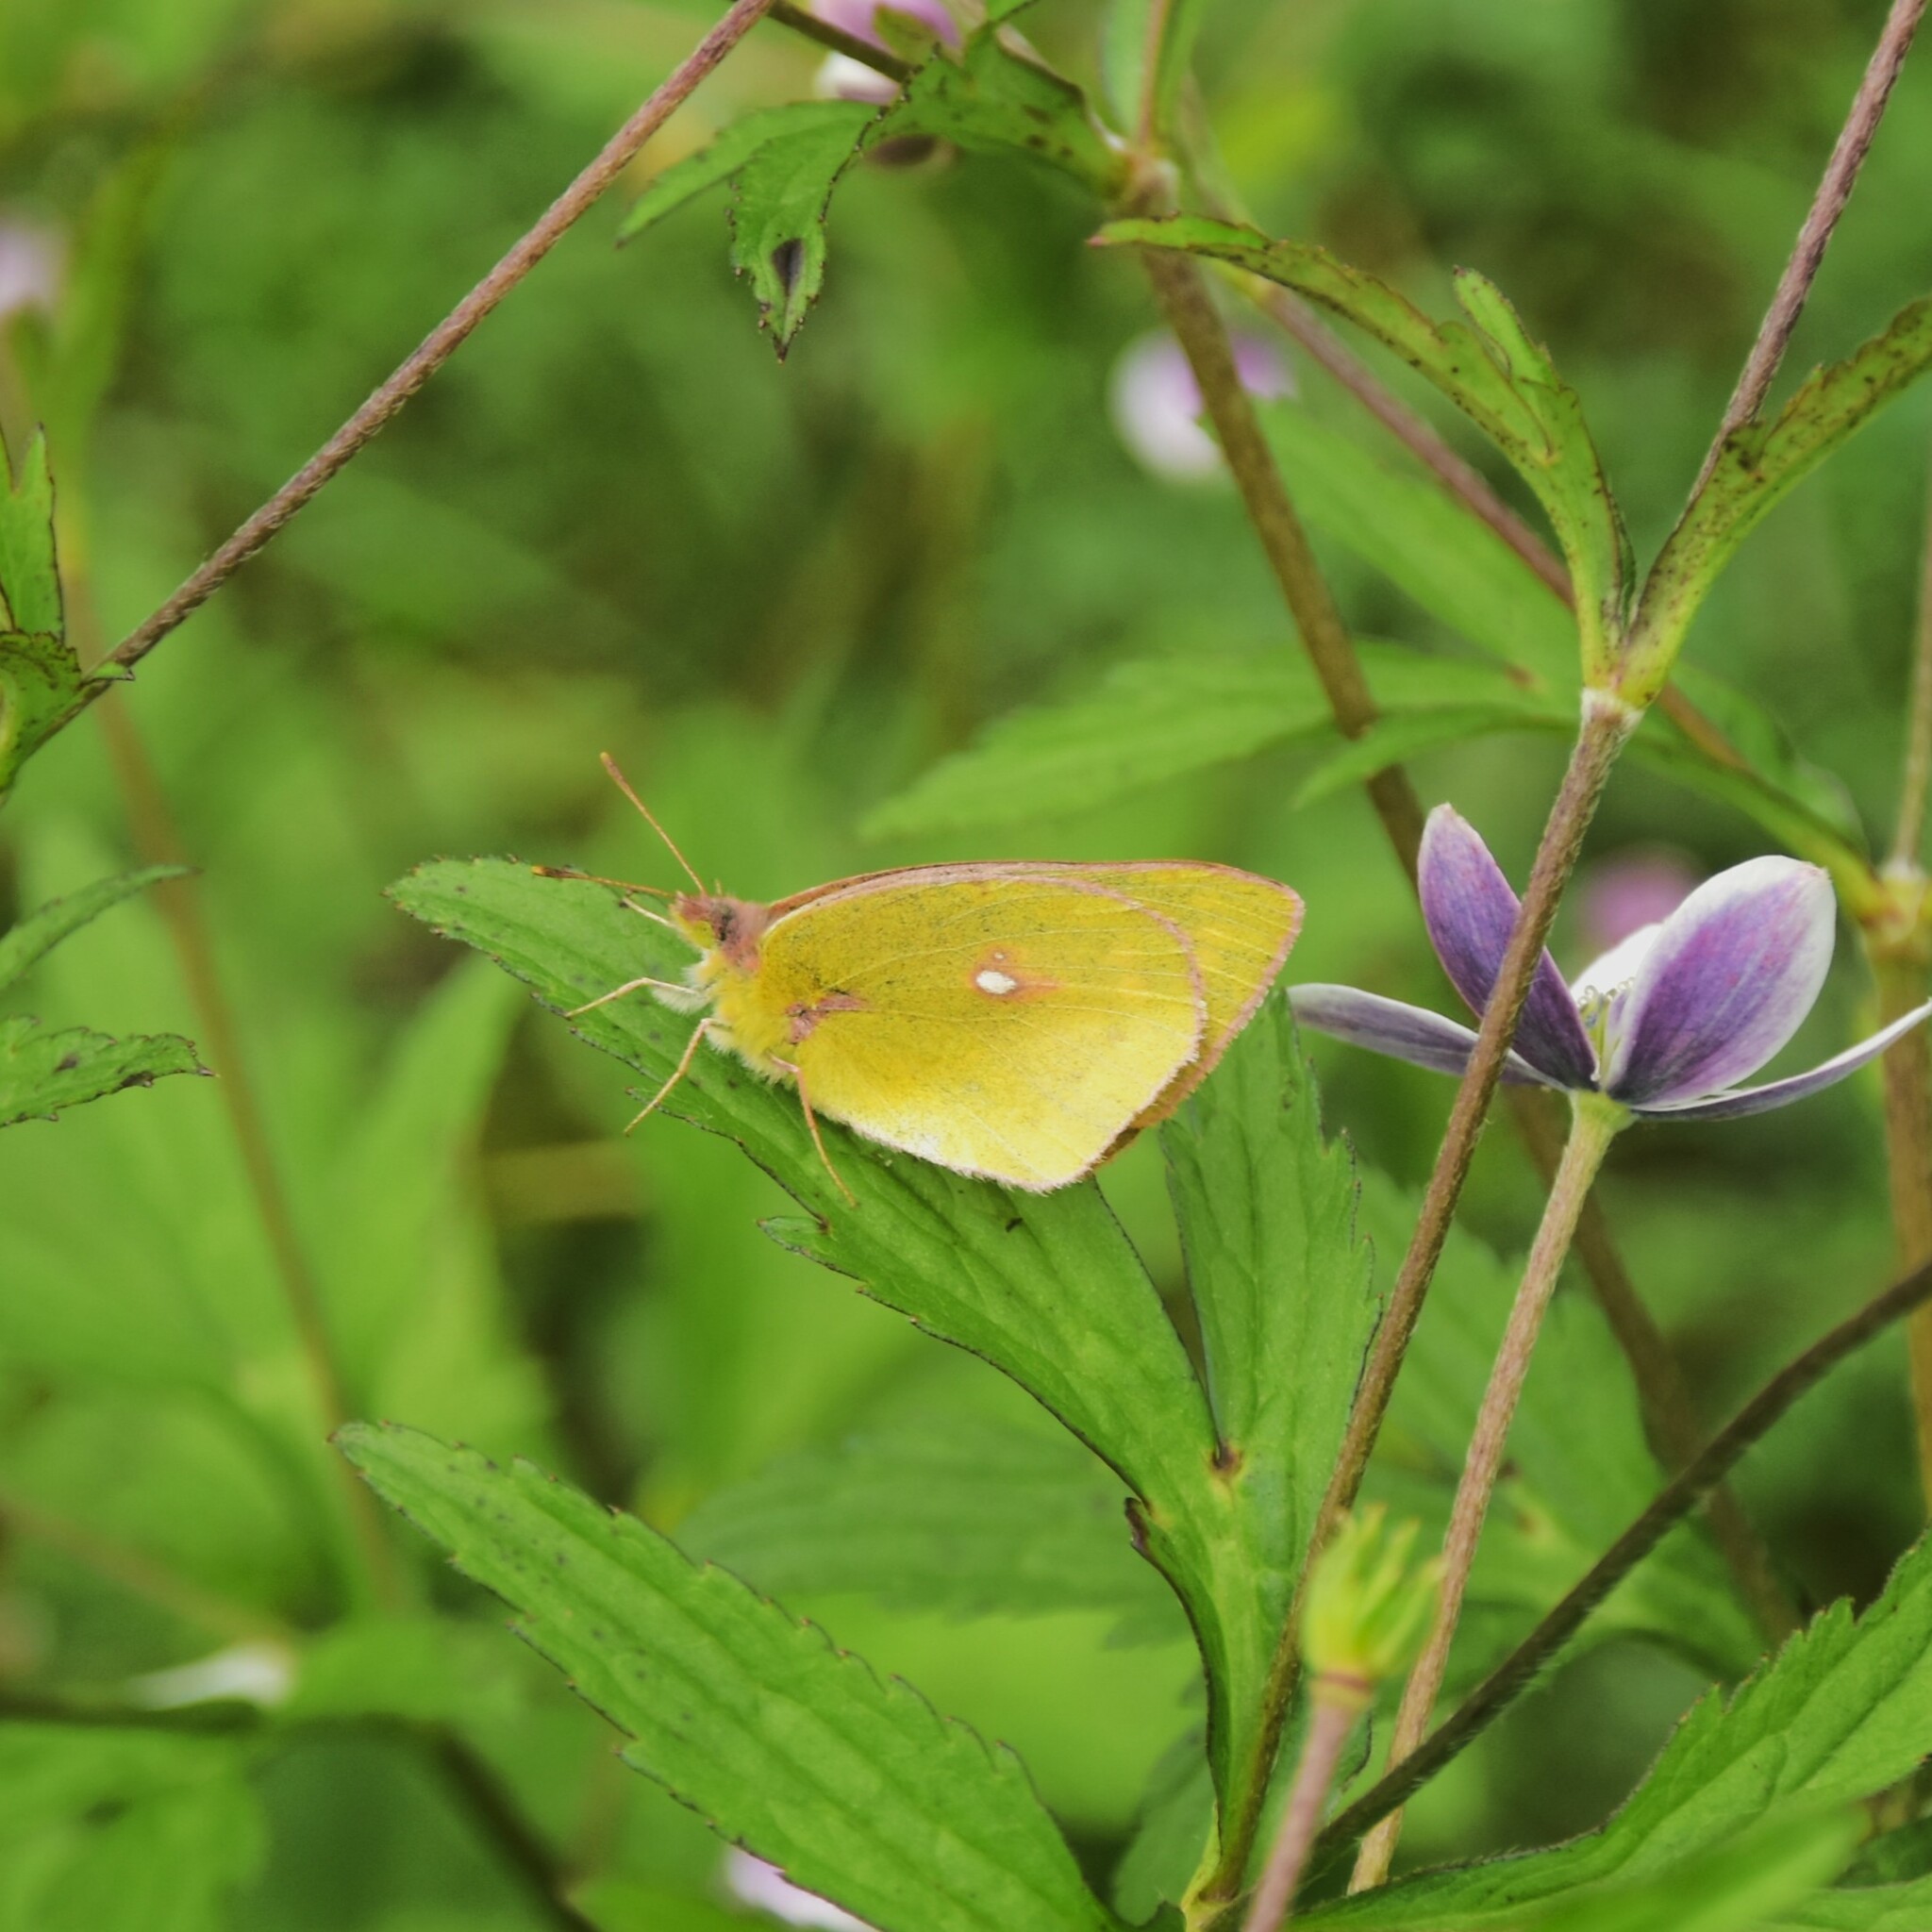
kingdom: Animalia
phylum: Arthropoda
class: Insecta
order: Lepidoptera
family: Pieridae
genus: Colias
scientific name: Colias fieldii
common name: Dark clouded yellow
